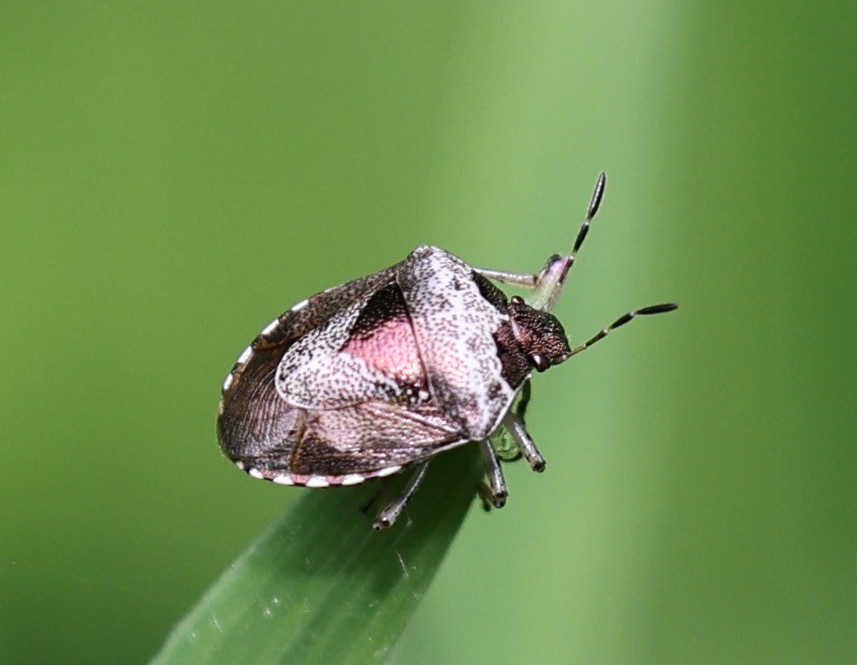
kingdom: Animalia
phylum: Arthropoda
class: Insecta
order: Hemiptera
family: Pentatomidae
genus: Eysarcoris
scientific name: Eysarcoris venustissimus
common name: Woundwort shieldbug
